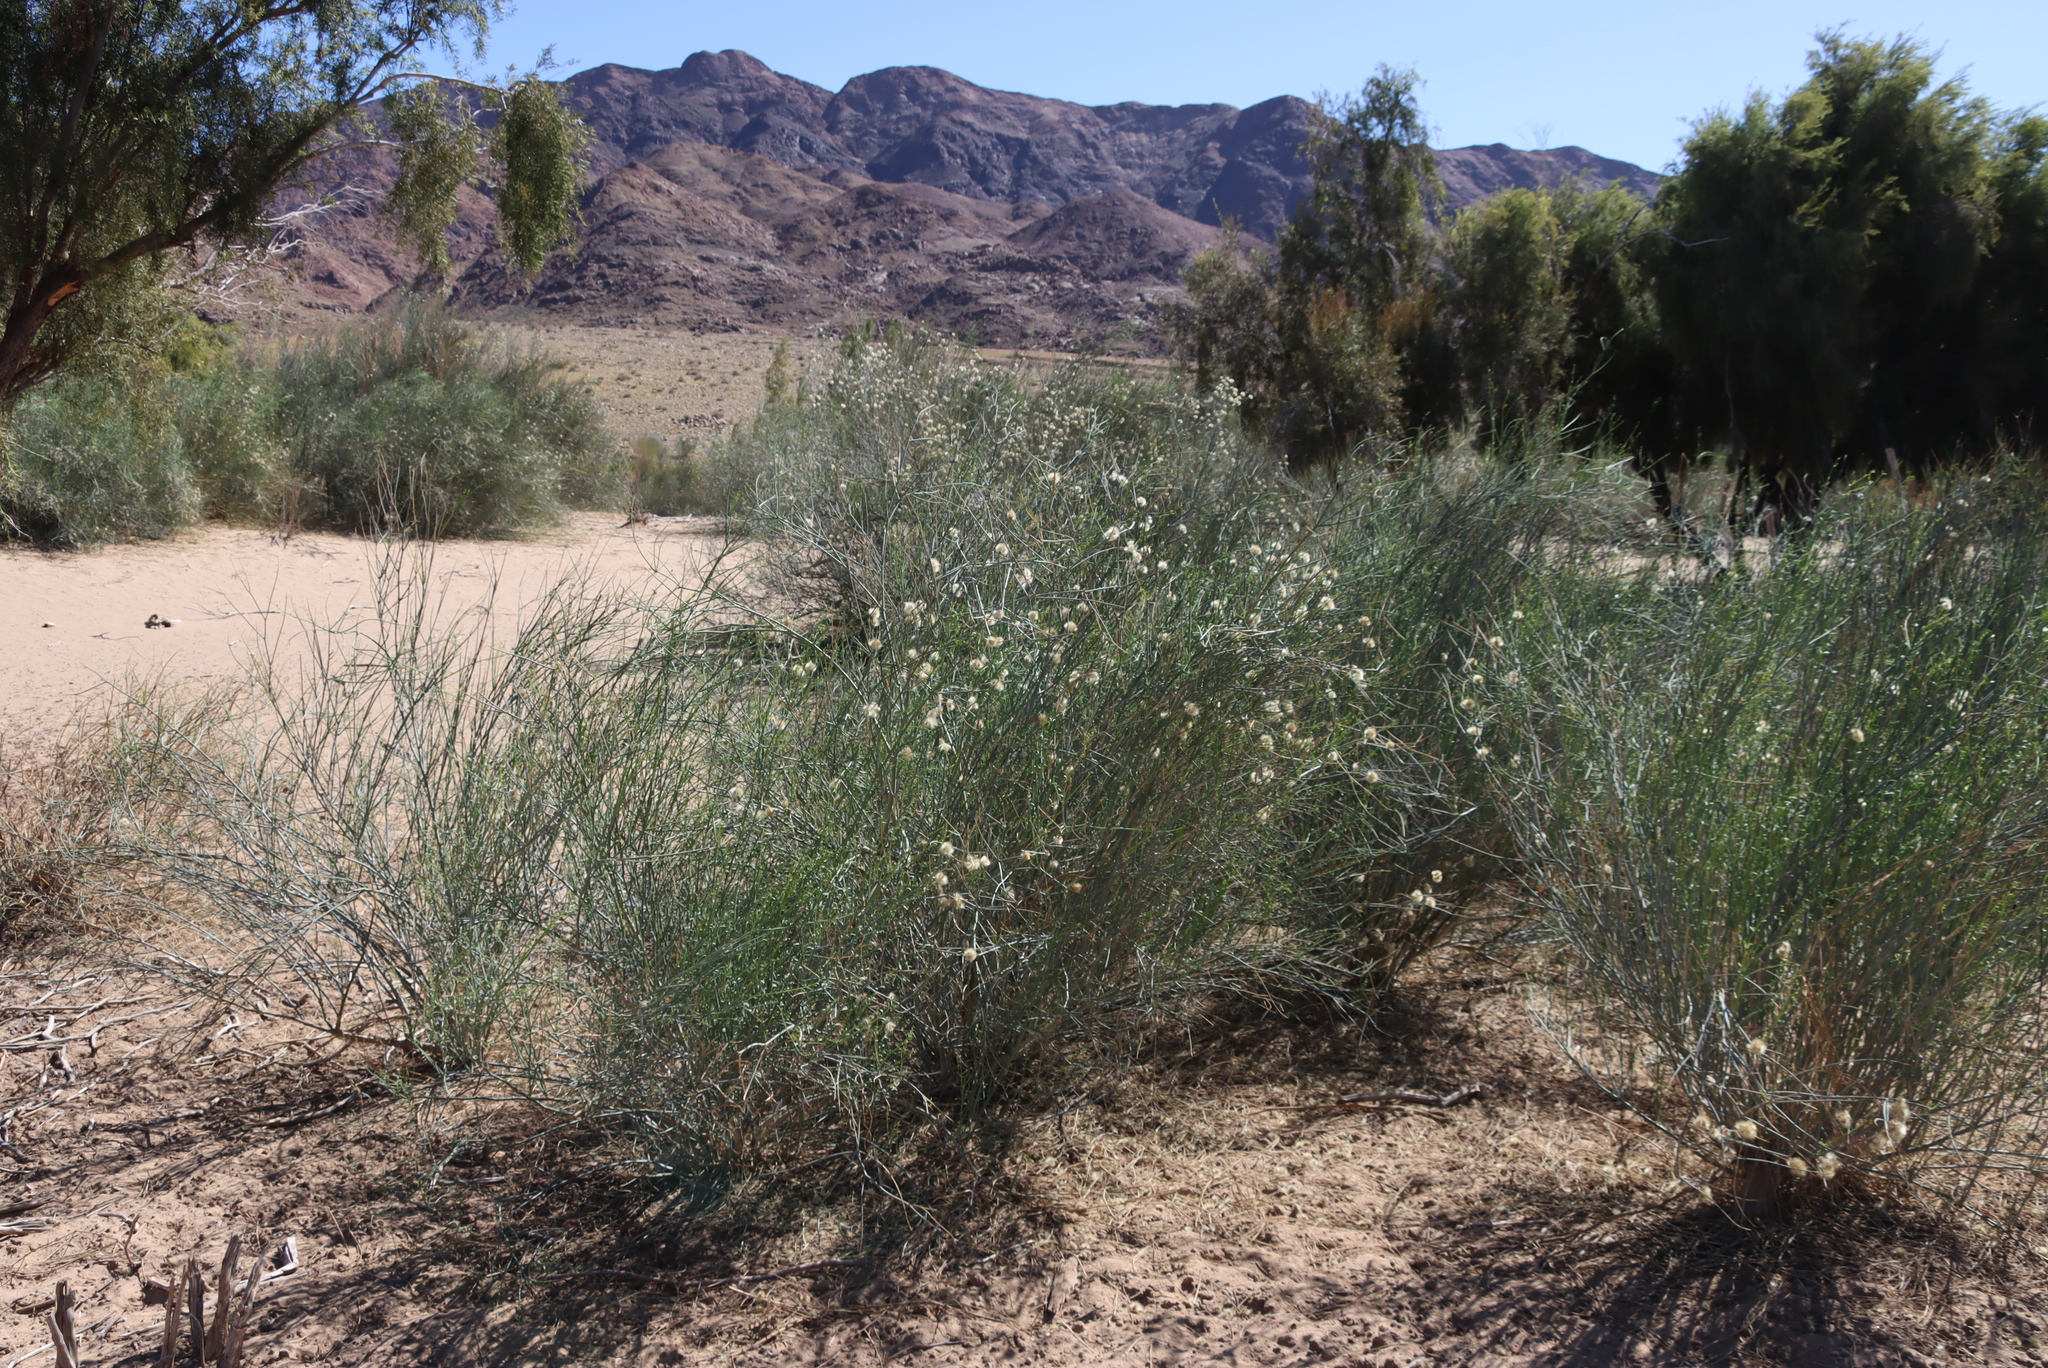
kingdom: Plantae
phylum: Tracheophyta
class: Magnoliopsida
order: Zygophyllales
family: Zygophyllaceae
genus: Sisyndite
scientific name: Sisyndite spartea
